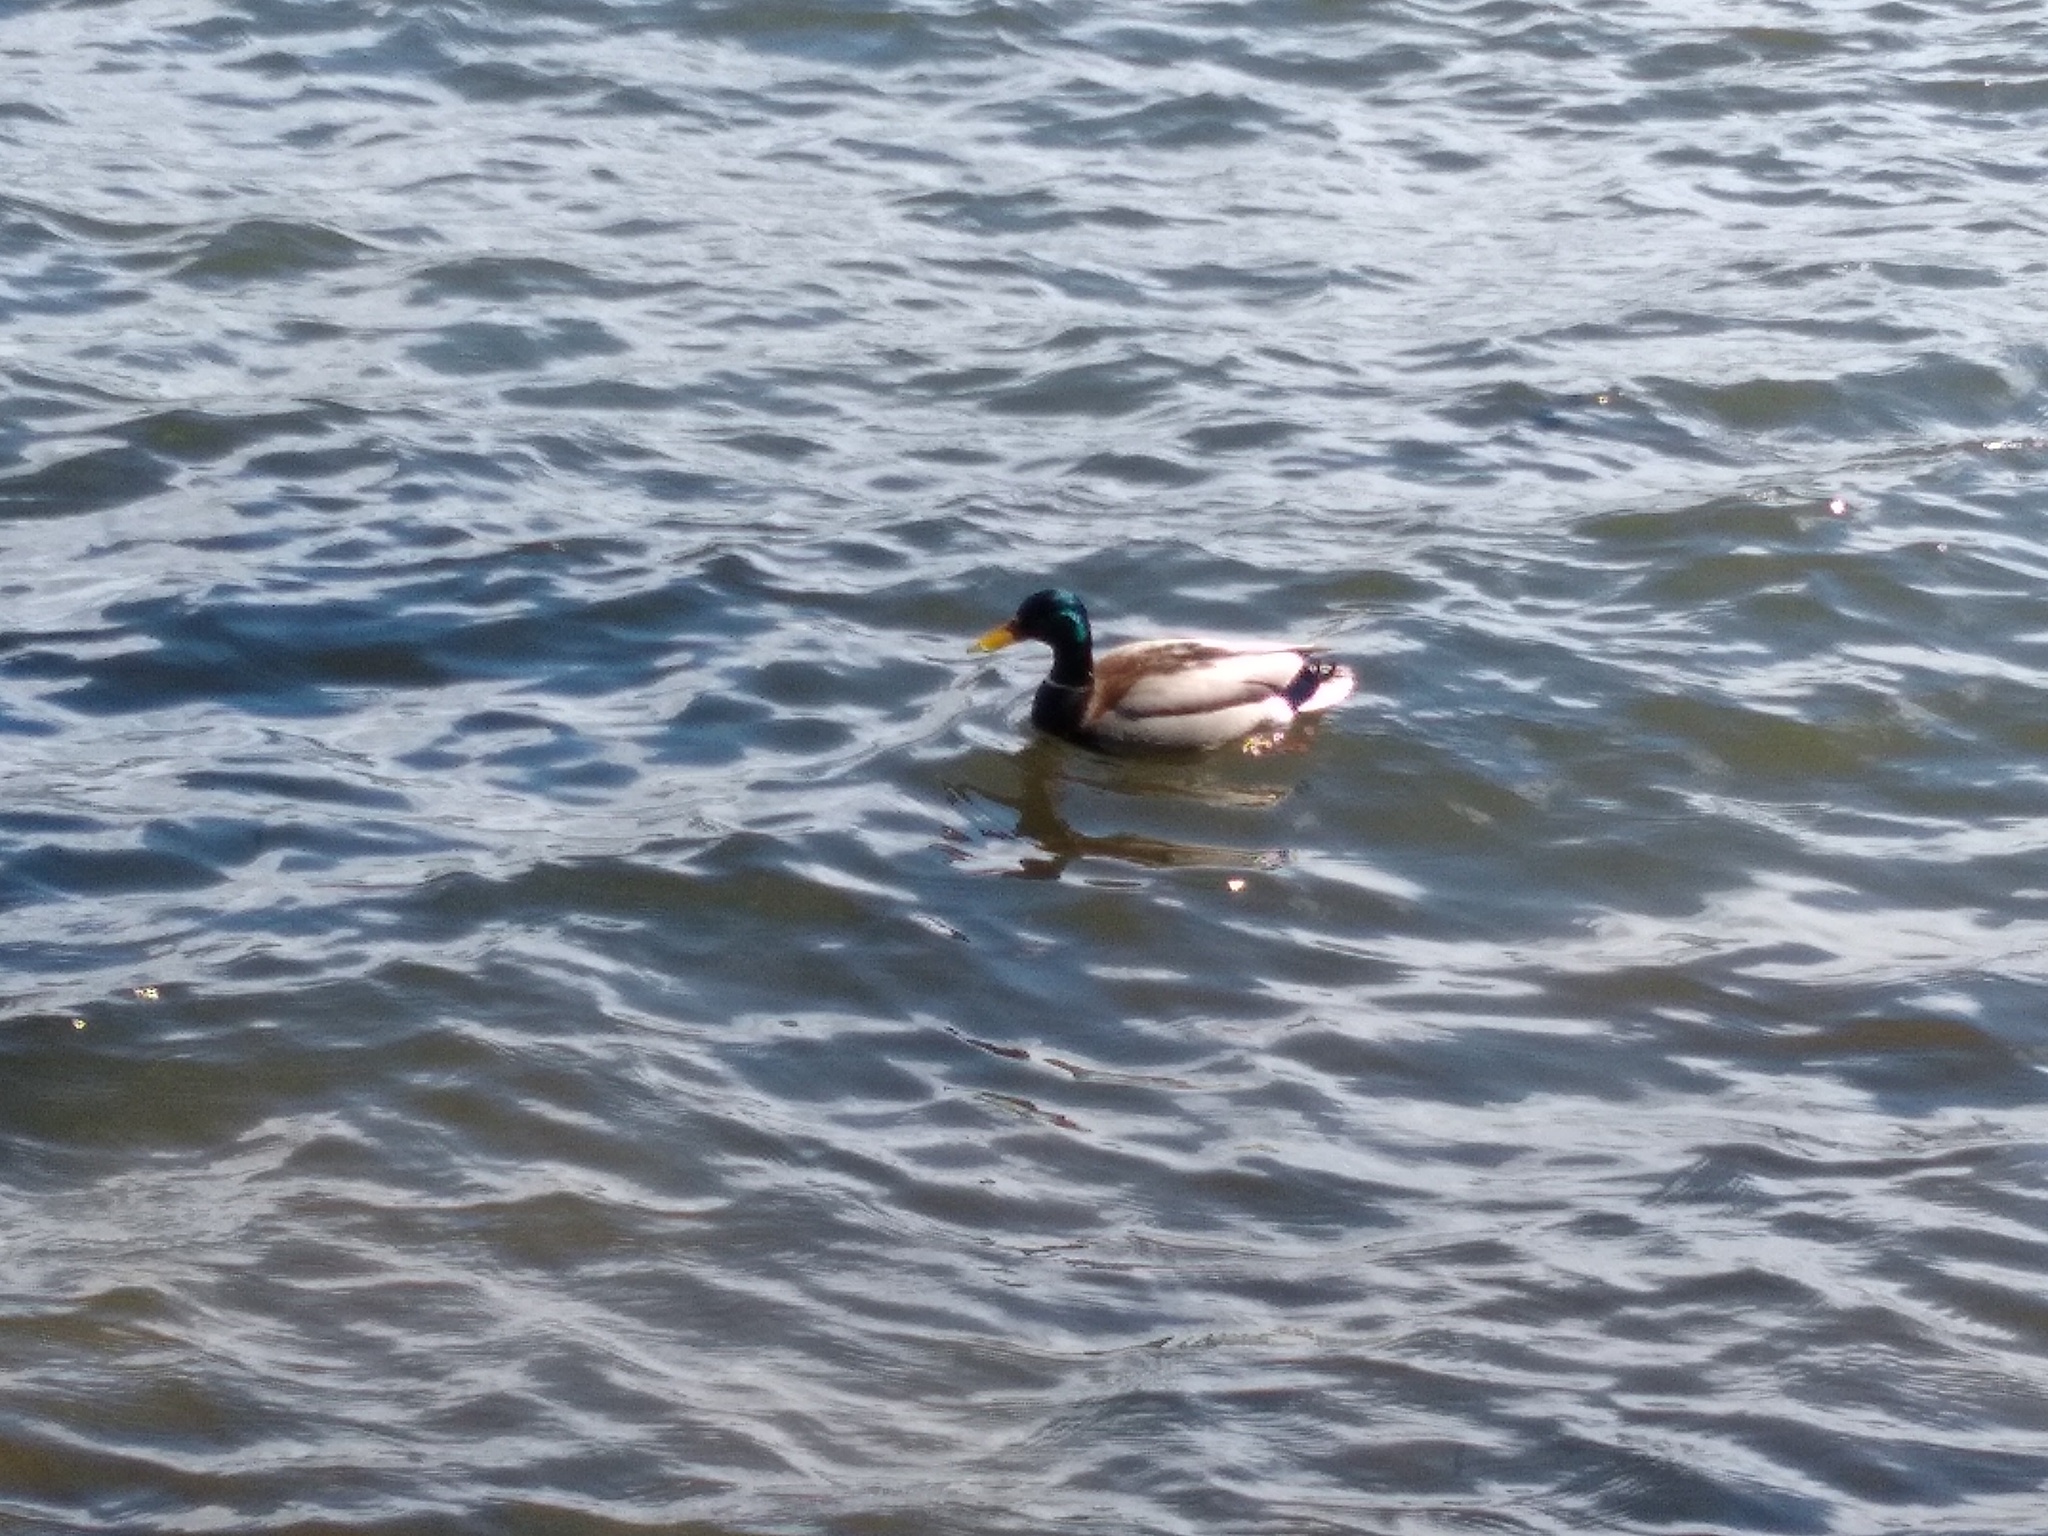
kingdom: Animalia
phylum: Chordata
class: Aves
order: Anseriformes
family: Anatidae
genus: Anas
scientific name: Anas platyrhynchos
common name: Mallard
